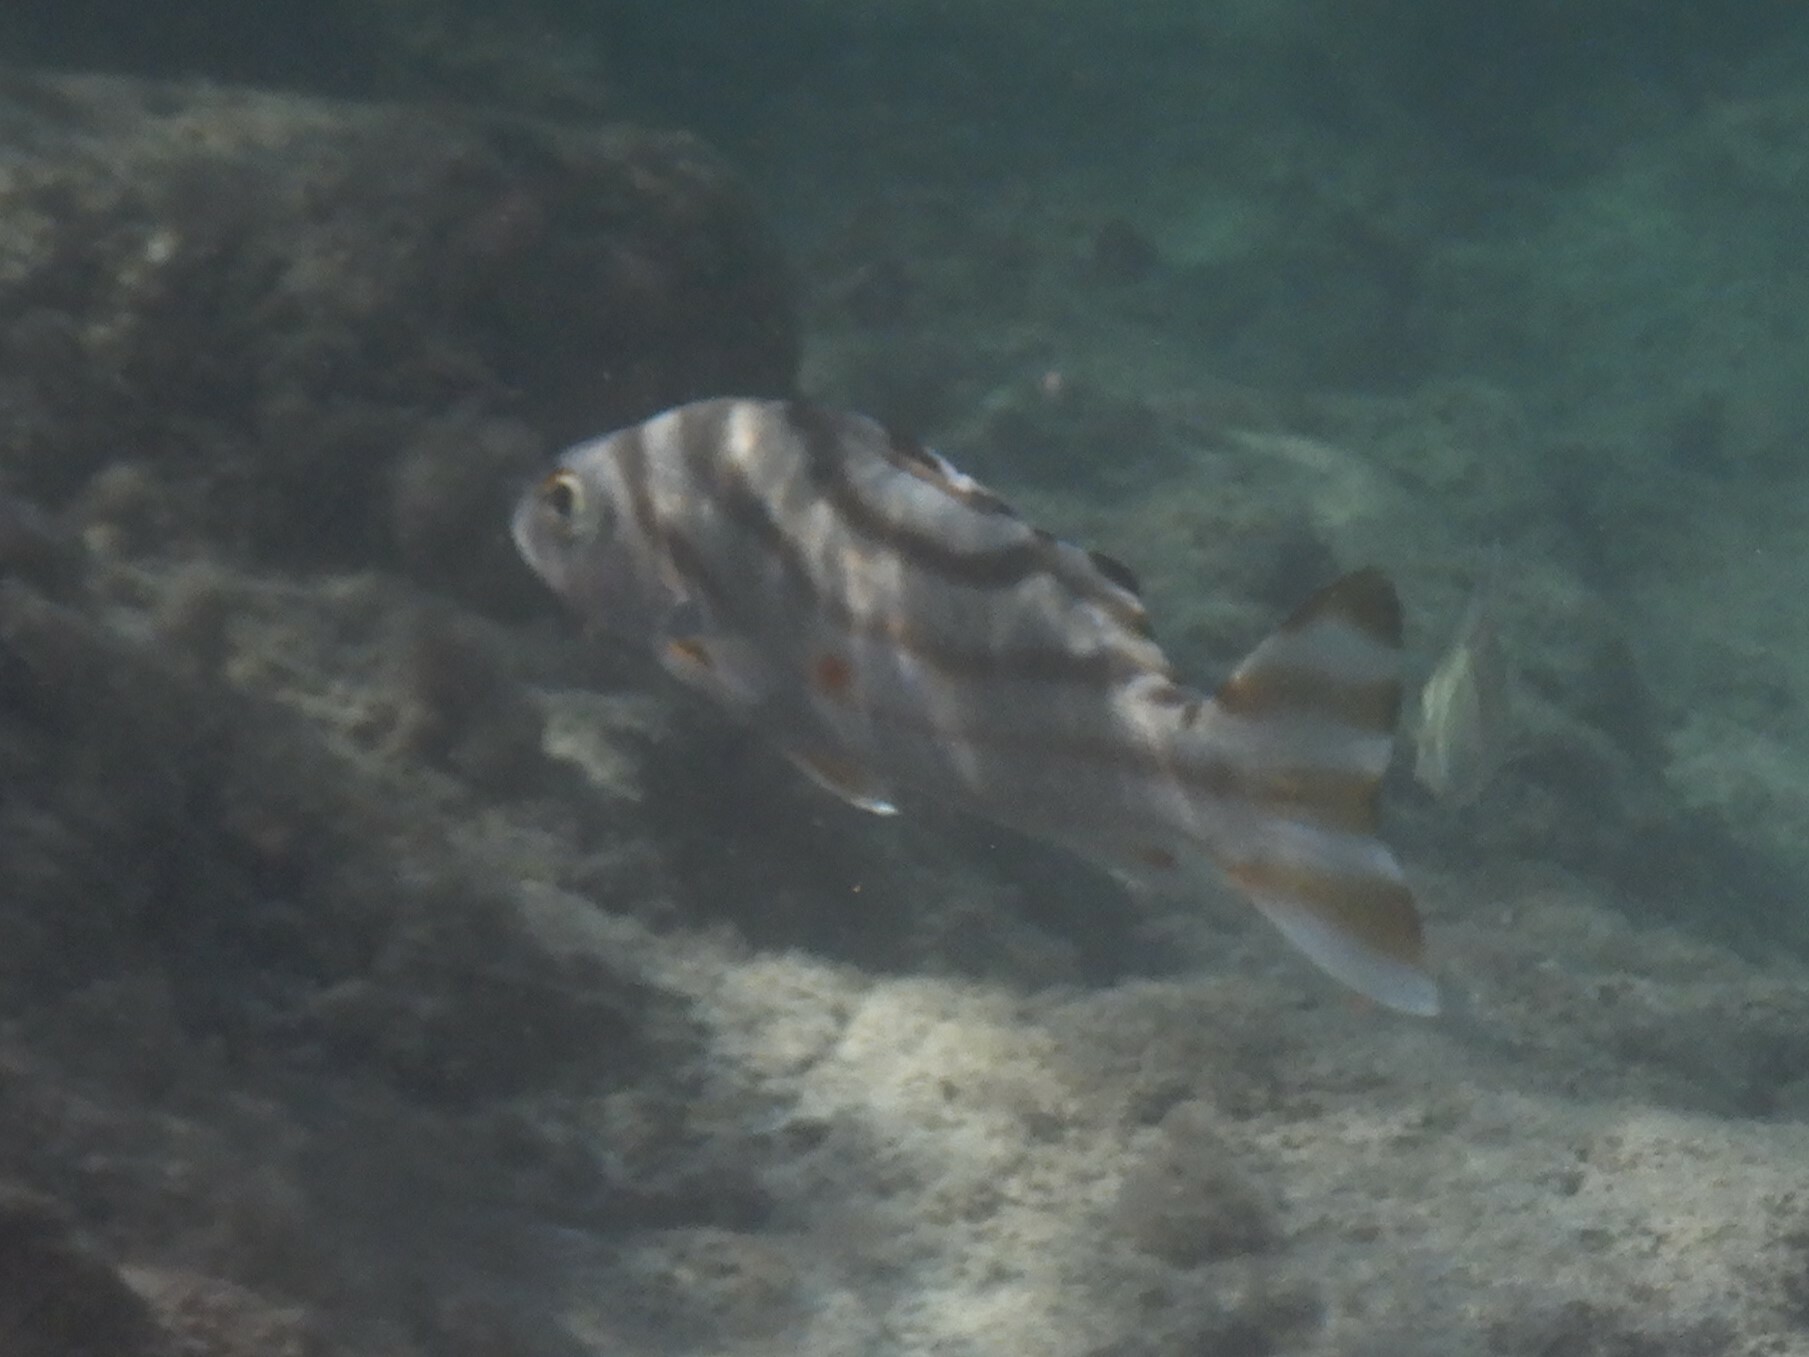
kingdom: Animalia
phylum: Chordata
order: Perciformes
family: Terapontidae
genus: Terapon
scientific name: Terapon jarbua
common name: Jarbua terapon
